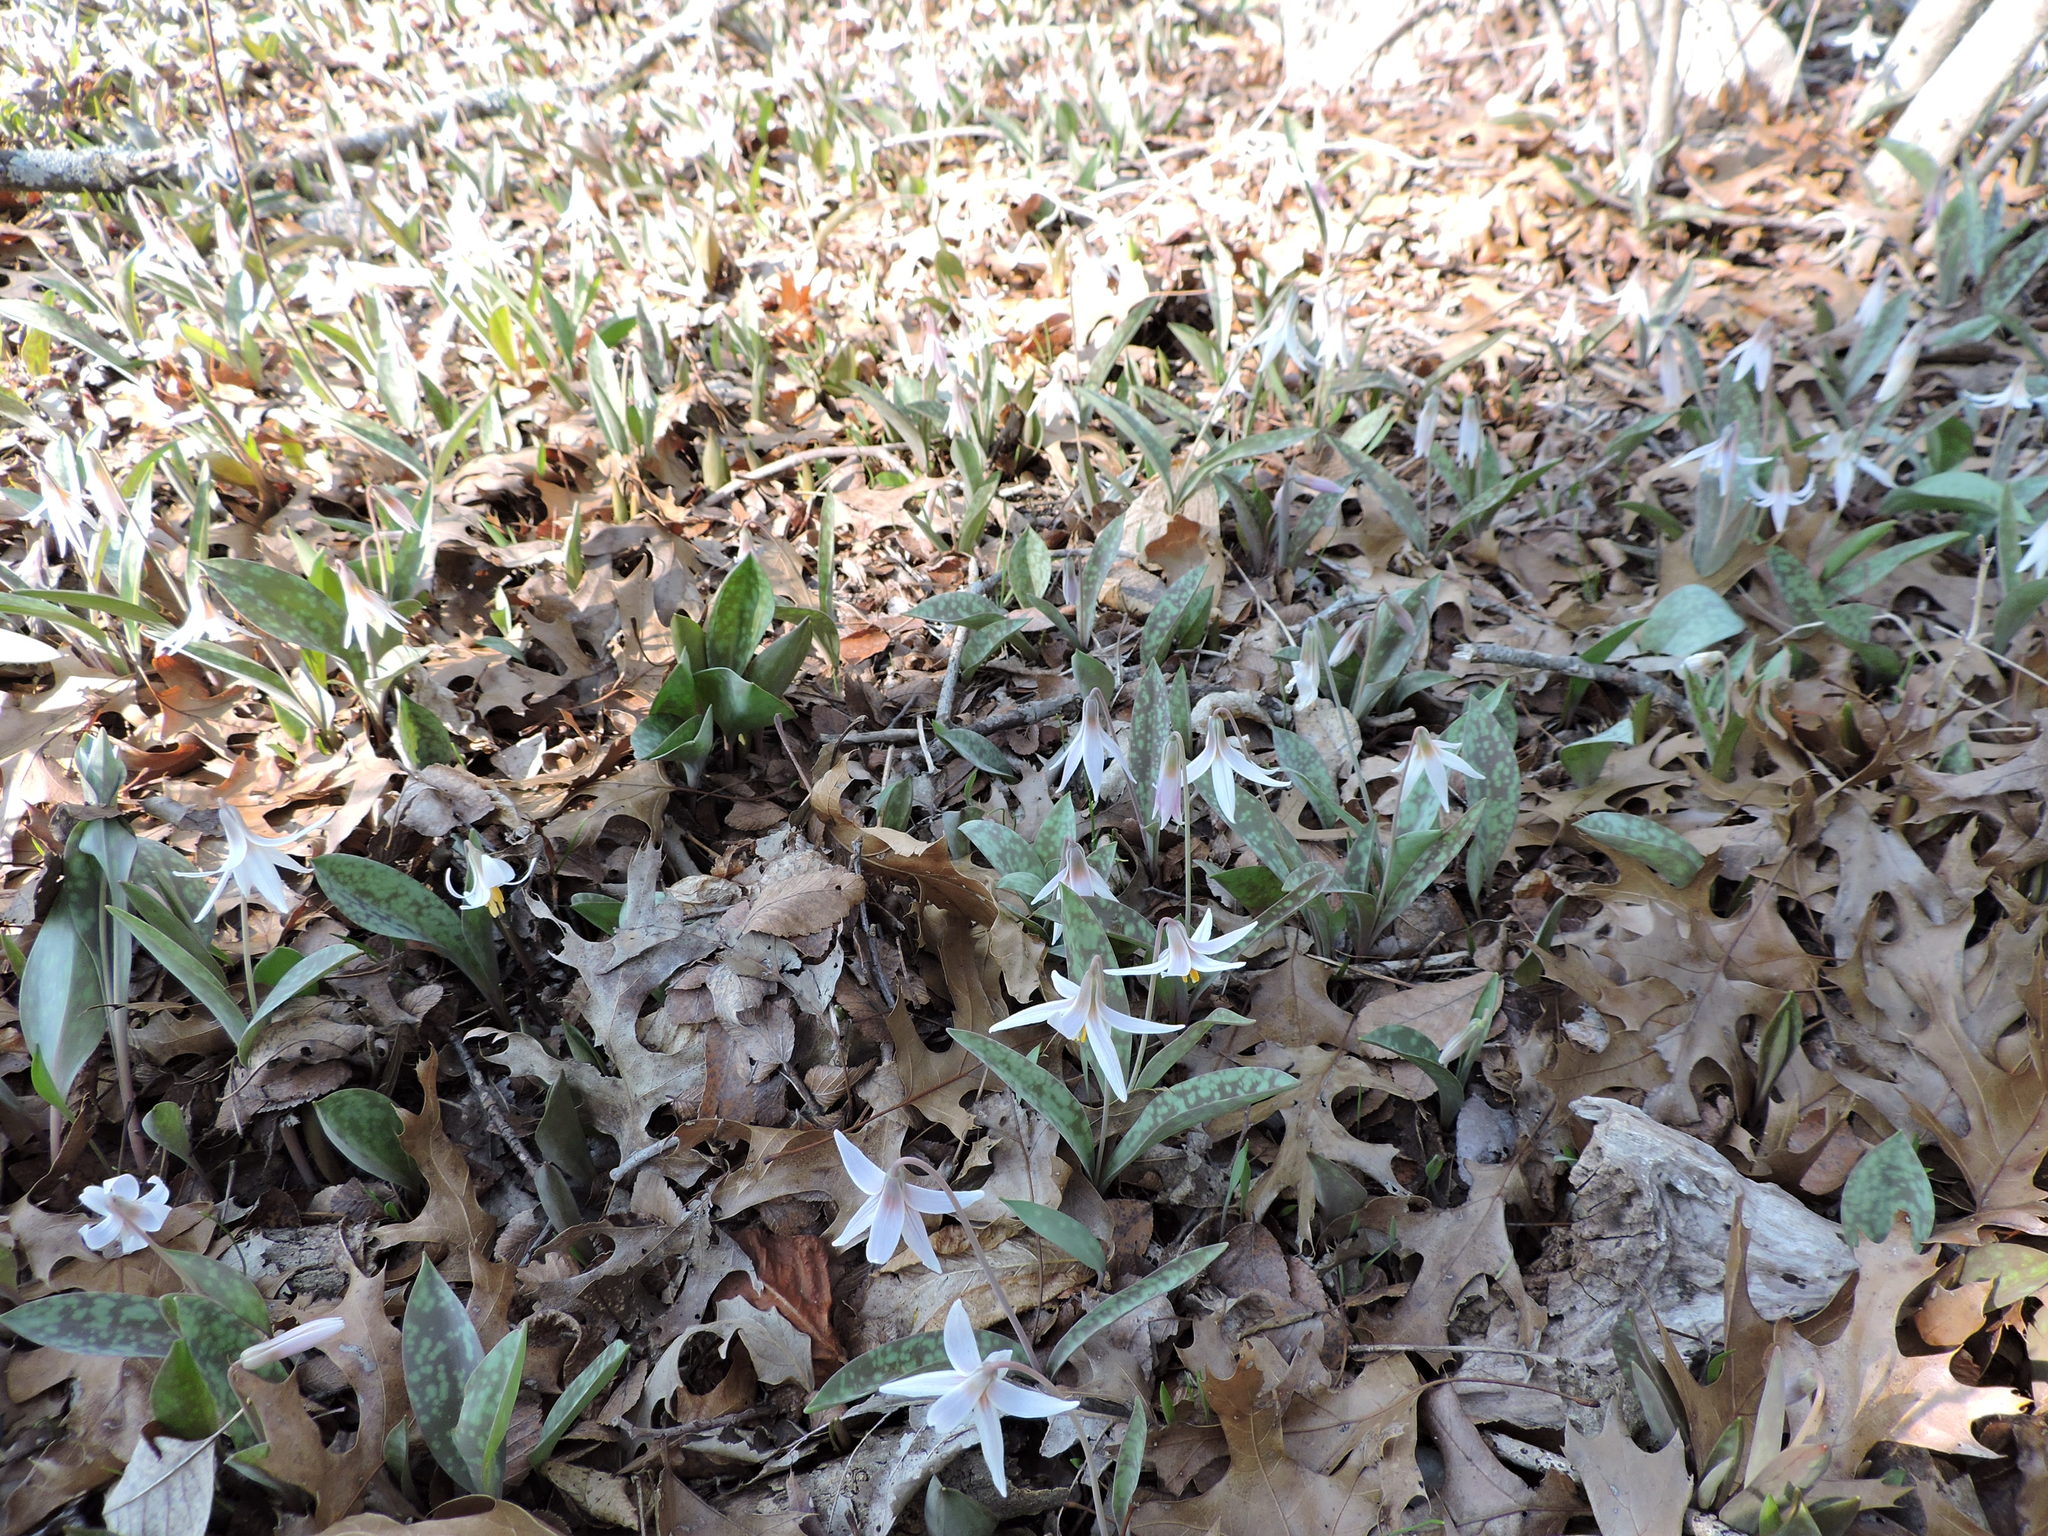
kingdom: Plantae
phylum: Tracheophyta
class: Liliopsida
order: Liliales
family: Liliaceae
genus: Erythronium
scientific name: Erythronium albidum
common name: White trout-lily
